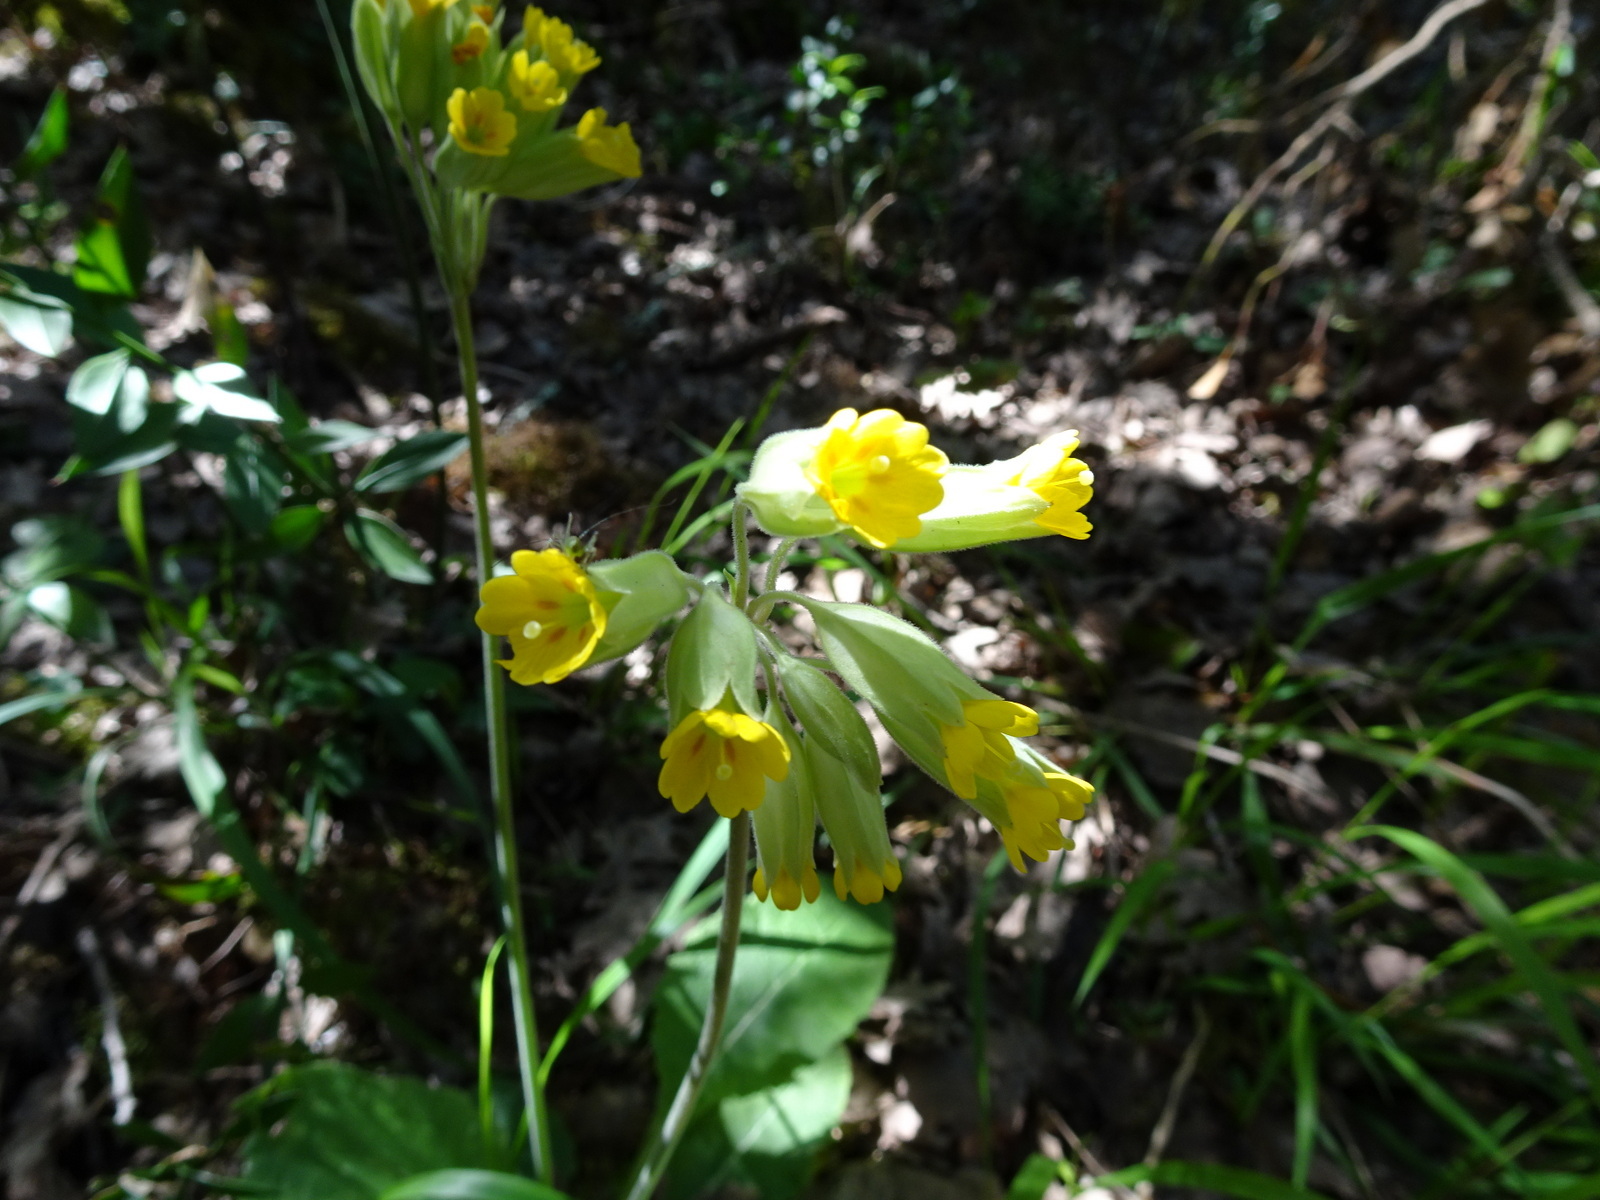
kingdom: Plantae
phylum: Tracheophyta
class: Magnoliopsida
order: Ericales
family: Primulaceae
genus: Primula
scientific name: Primula veris
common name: Cowslip
